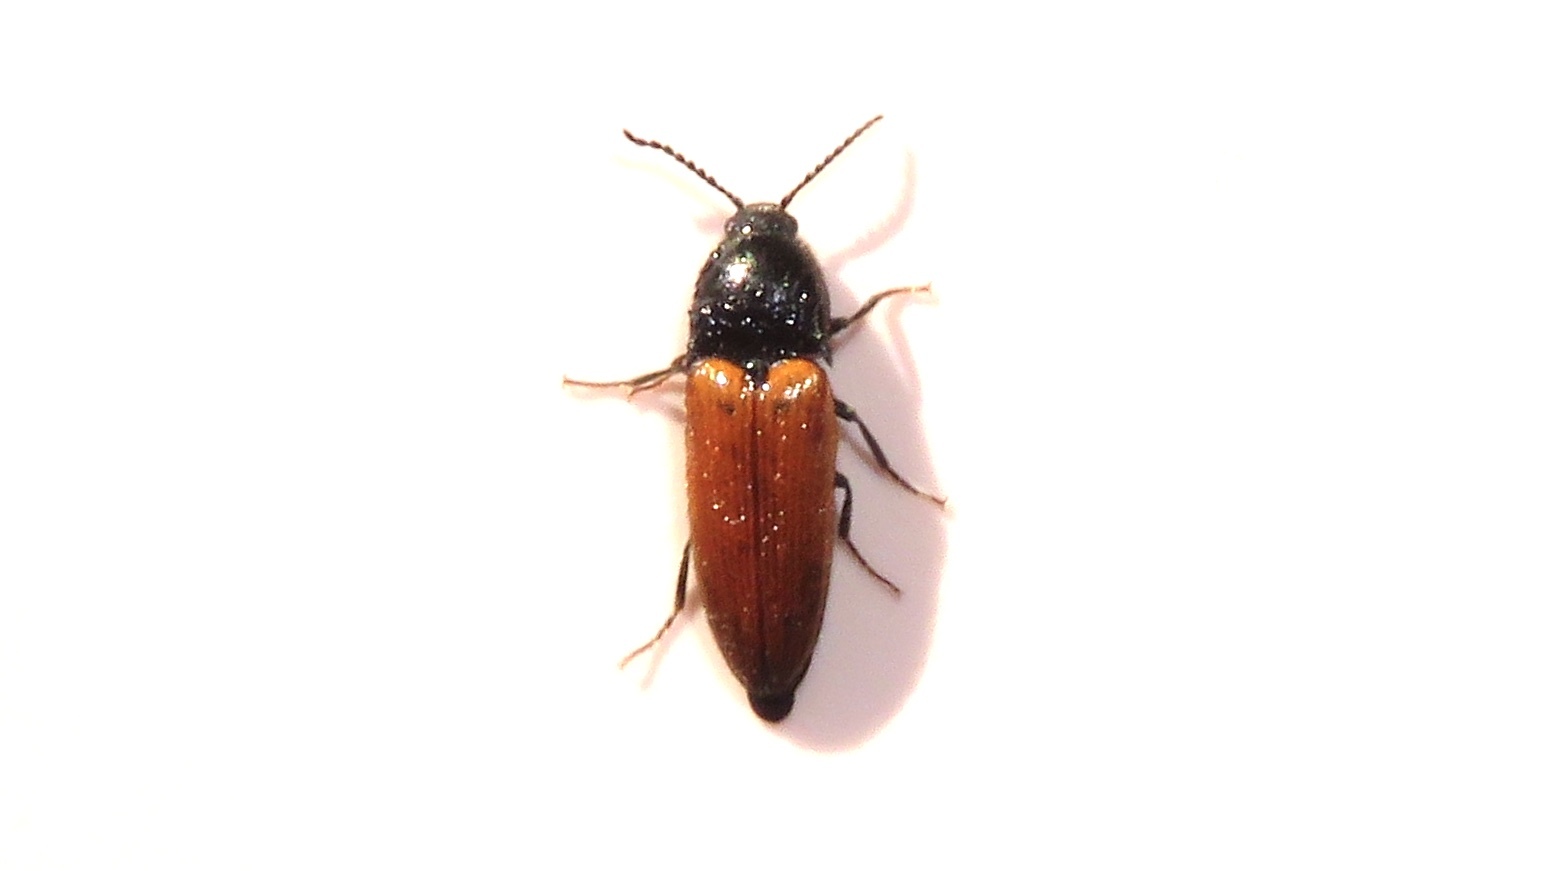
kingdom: Animalia
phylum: Arthropoda
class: Insecta
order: Coleoptera
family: Elateridae
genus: Ampedus
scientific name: Ampedus sanguinipennis
